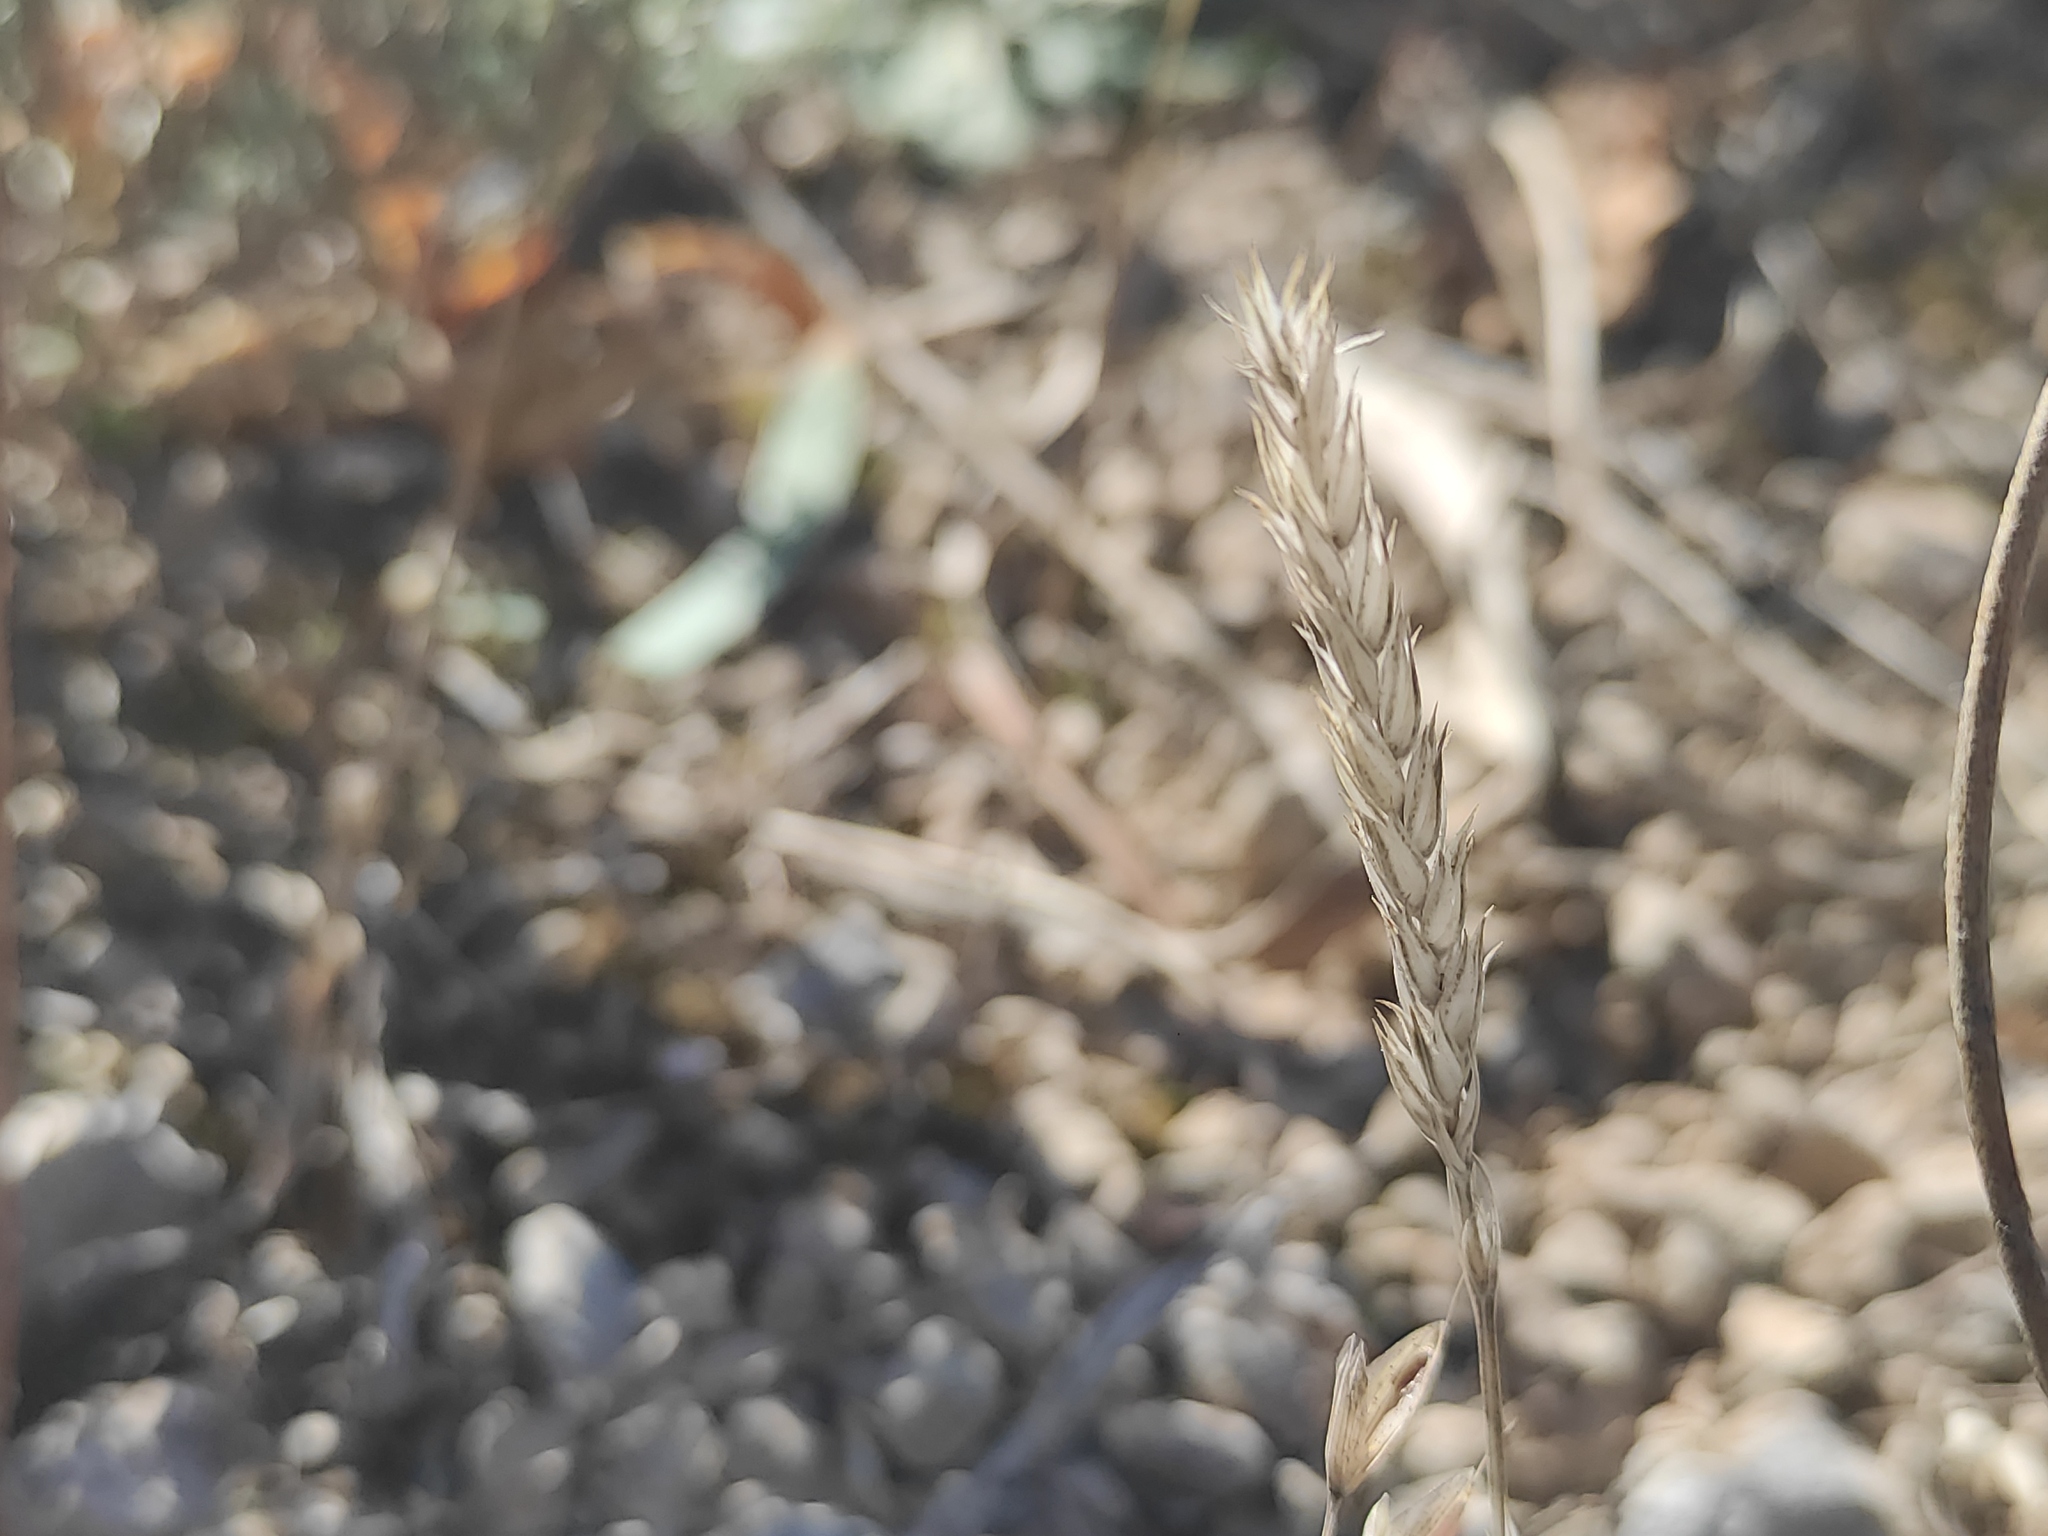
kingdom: Plantae
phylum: Tracheophyta
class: Magnoliopsida
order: Gentianales
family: Rubiaceae
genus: Crucianella
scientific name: Crucianella angustifolia
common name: Narrowleaf crucianella
